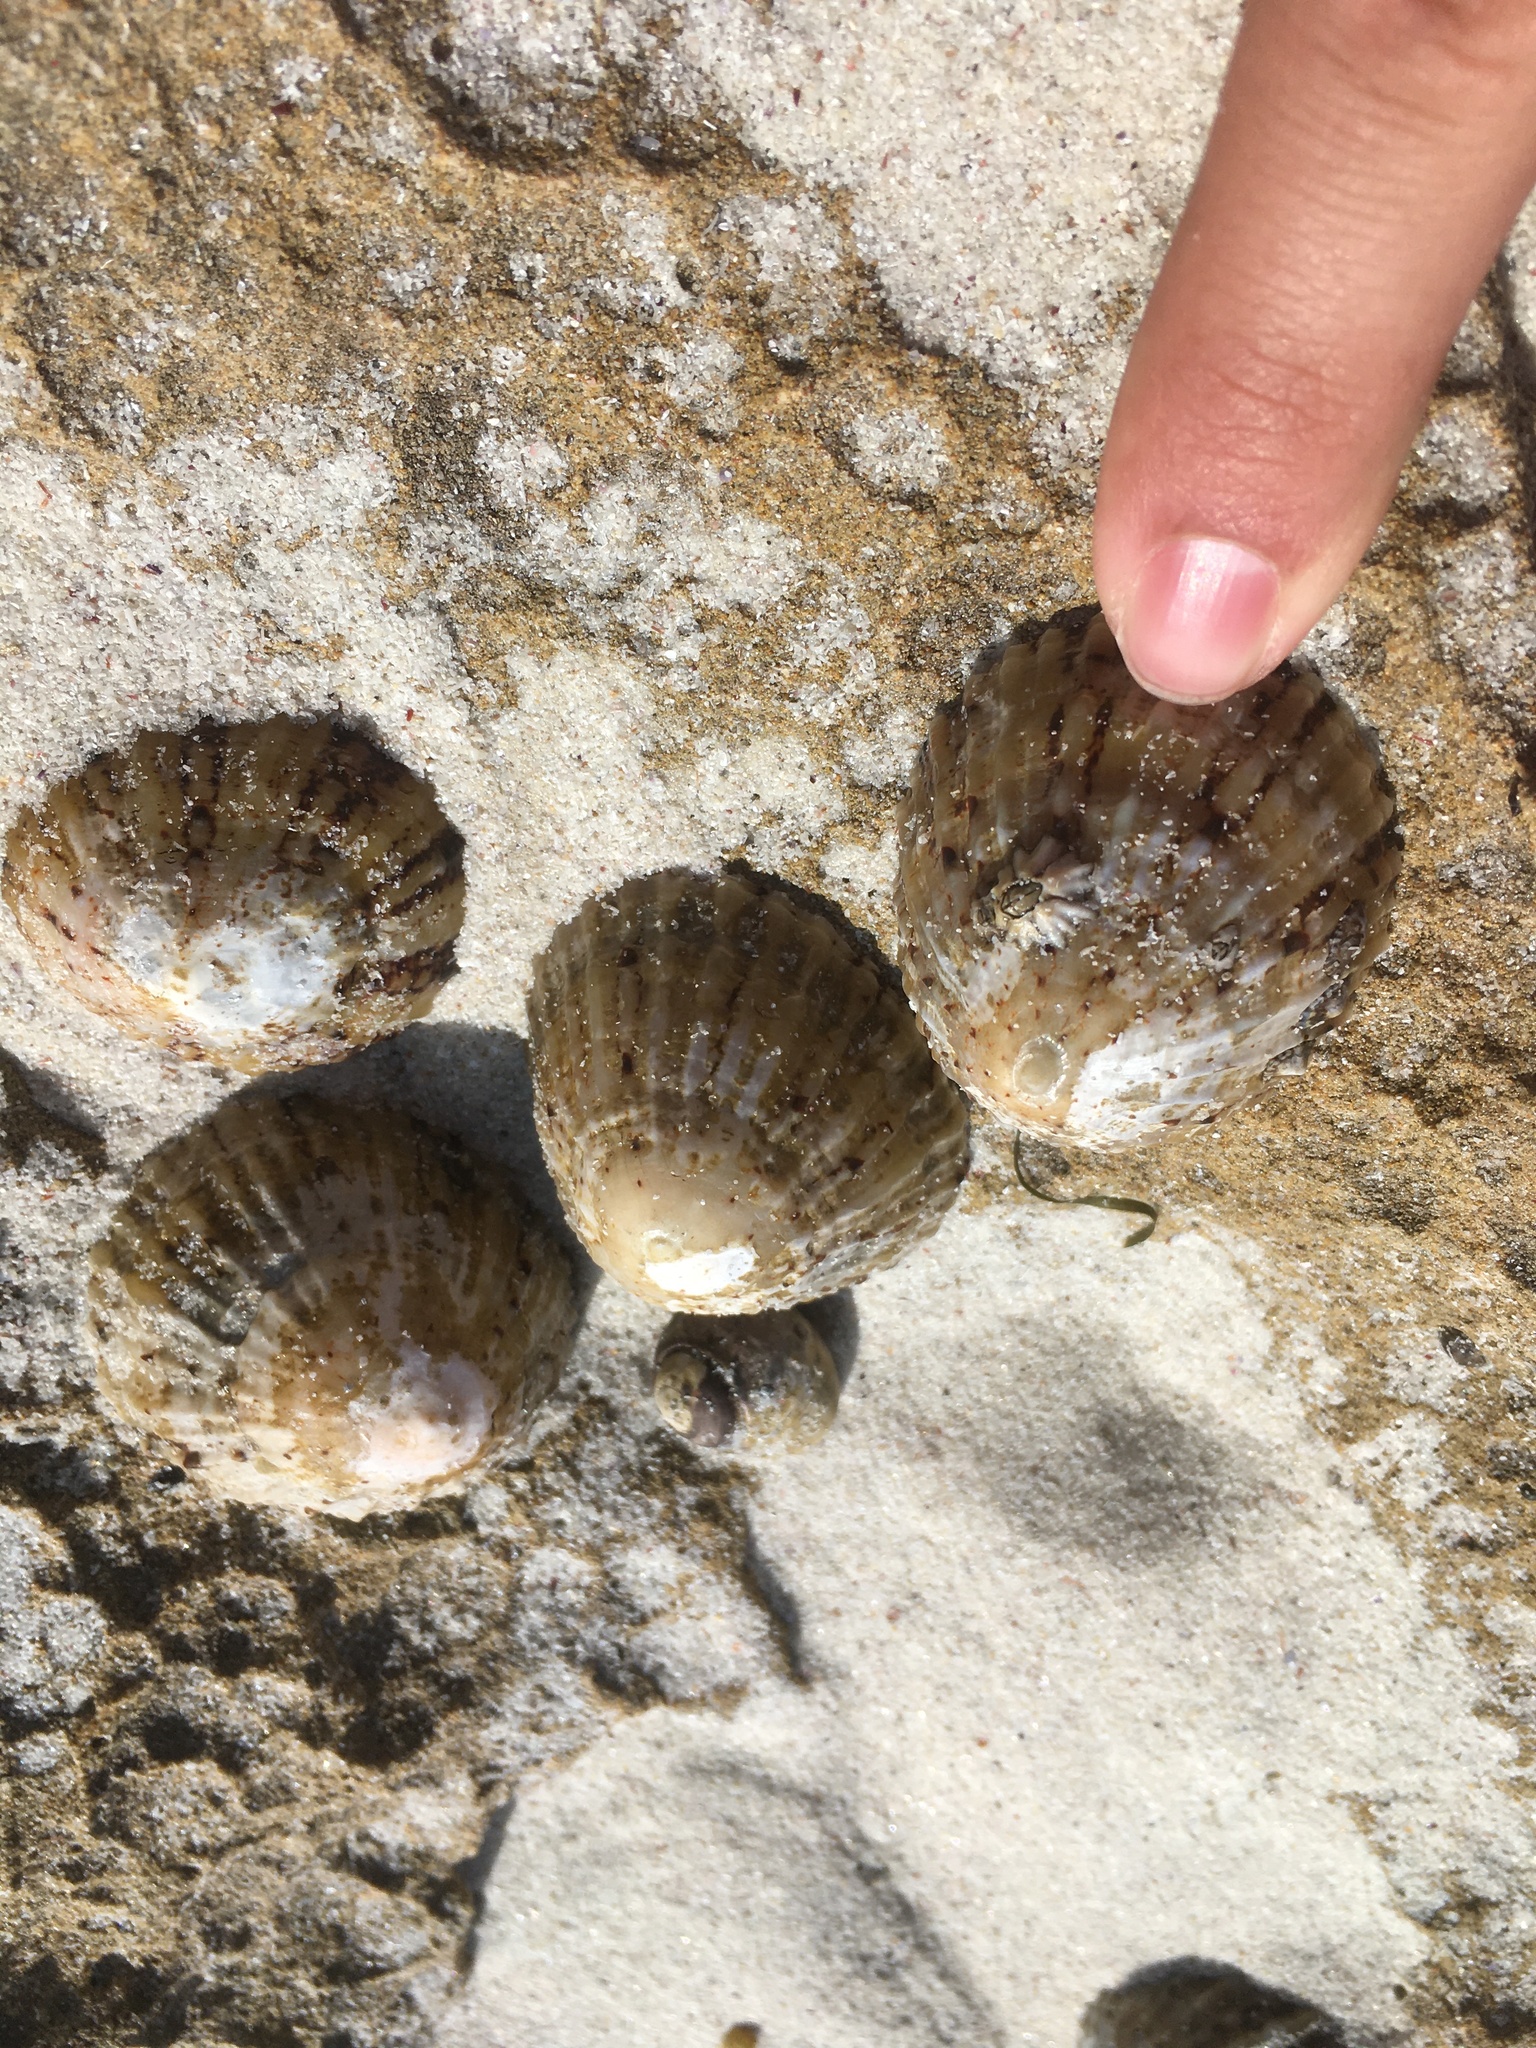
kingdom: Animalia
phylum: Mollusca
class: Gastropoda
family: Nacellidae
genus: Cellana
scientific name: Cellana tramoserica
